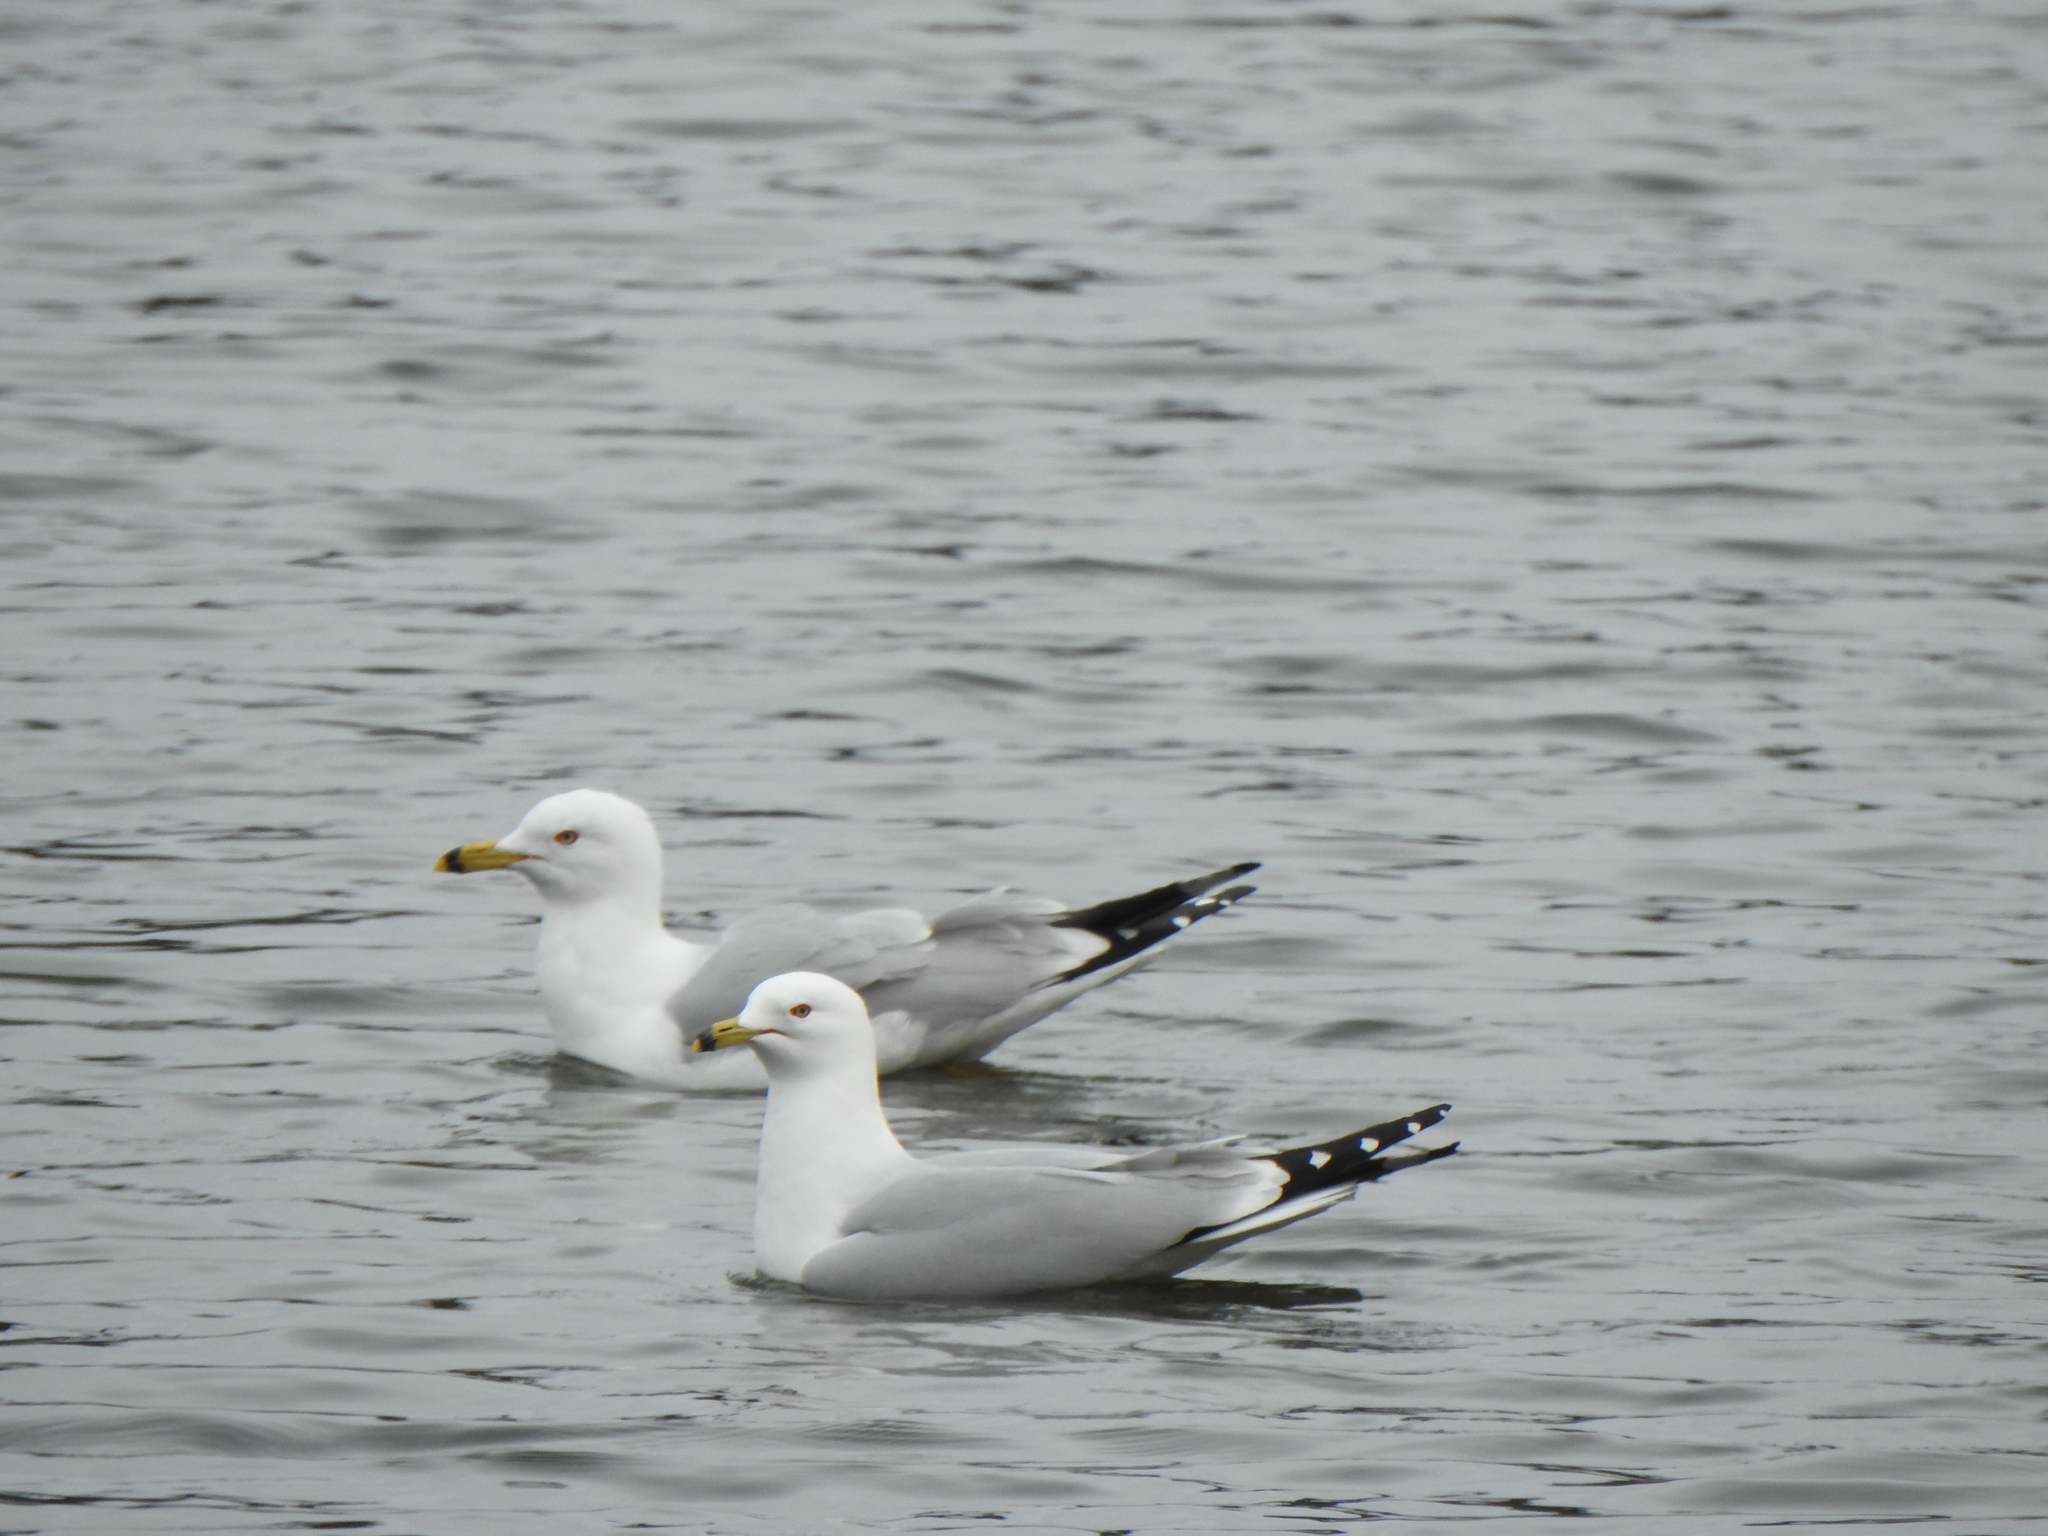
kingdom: Animalia
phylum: Chordata
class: Aves
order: Charadriiformes
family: Laridae
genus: Larus
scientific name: Larus delawarensis
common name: Ring-billed gull
